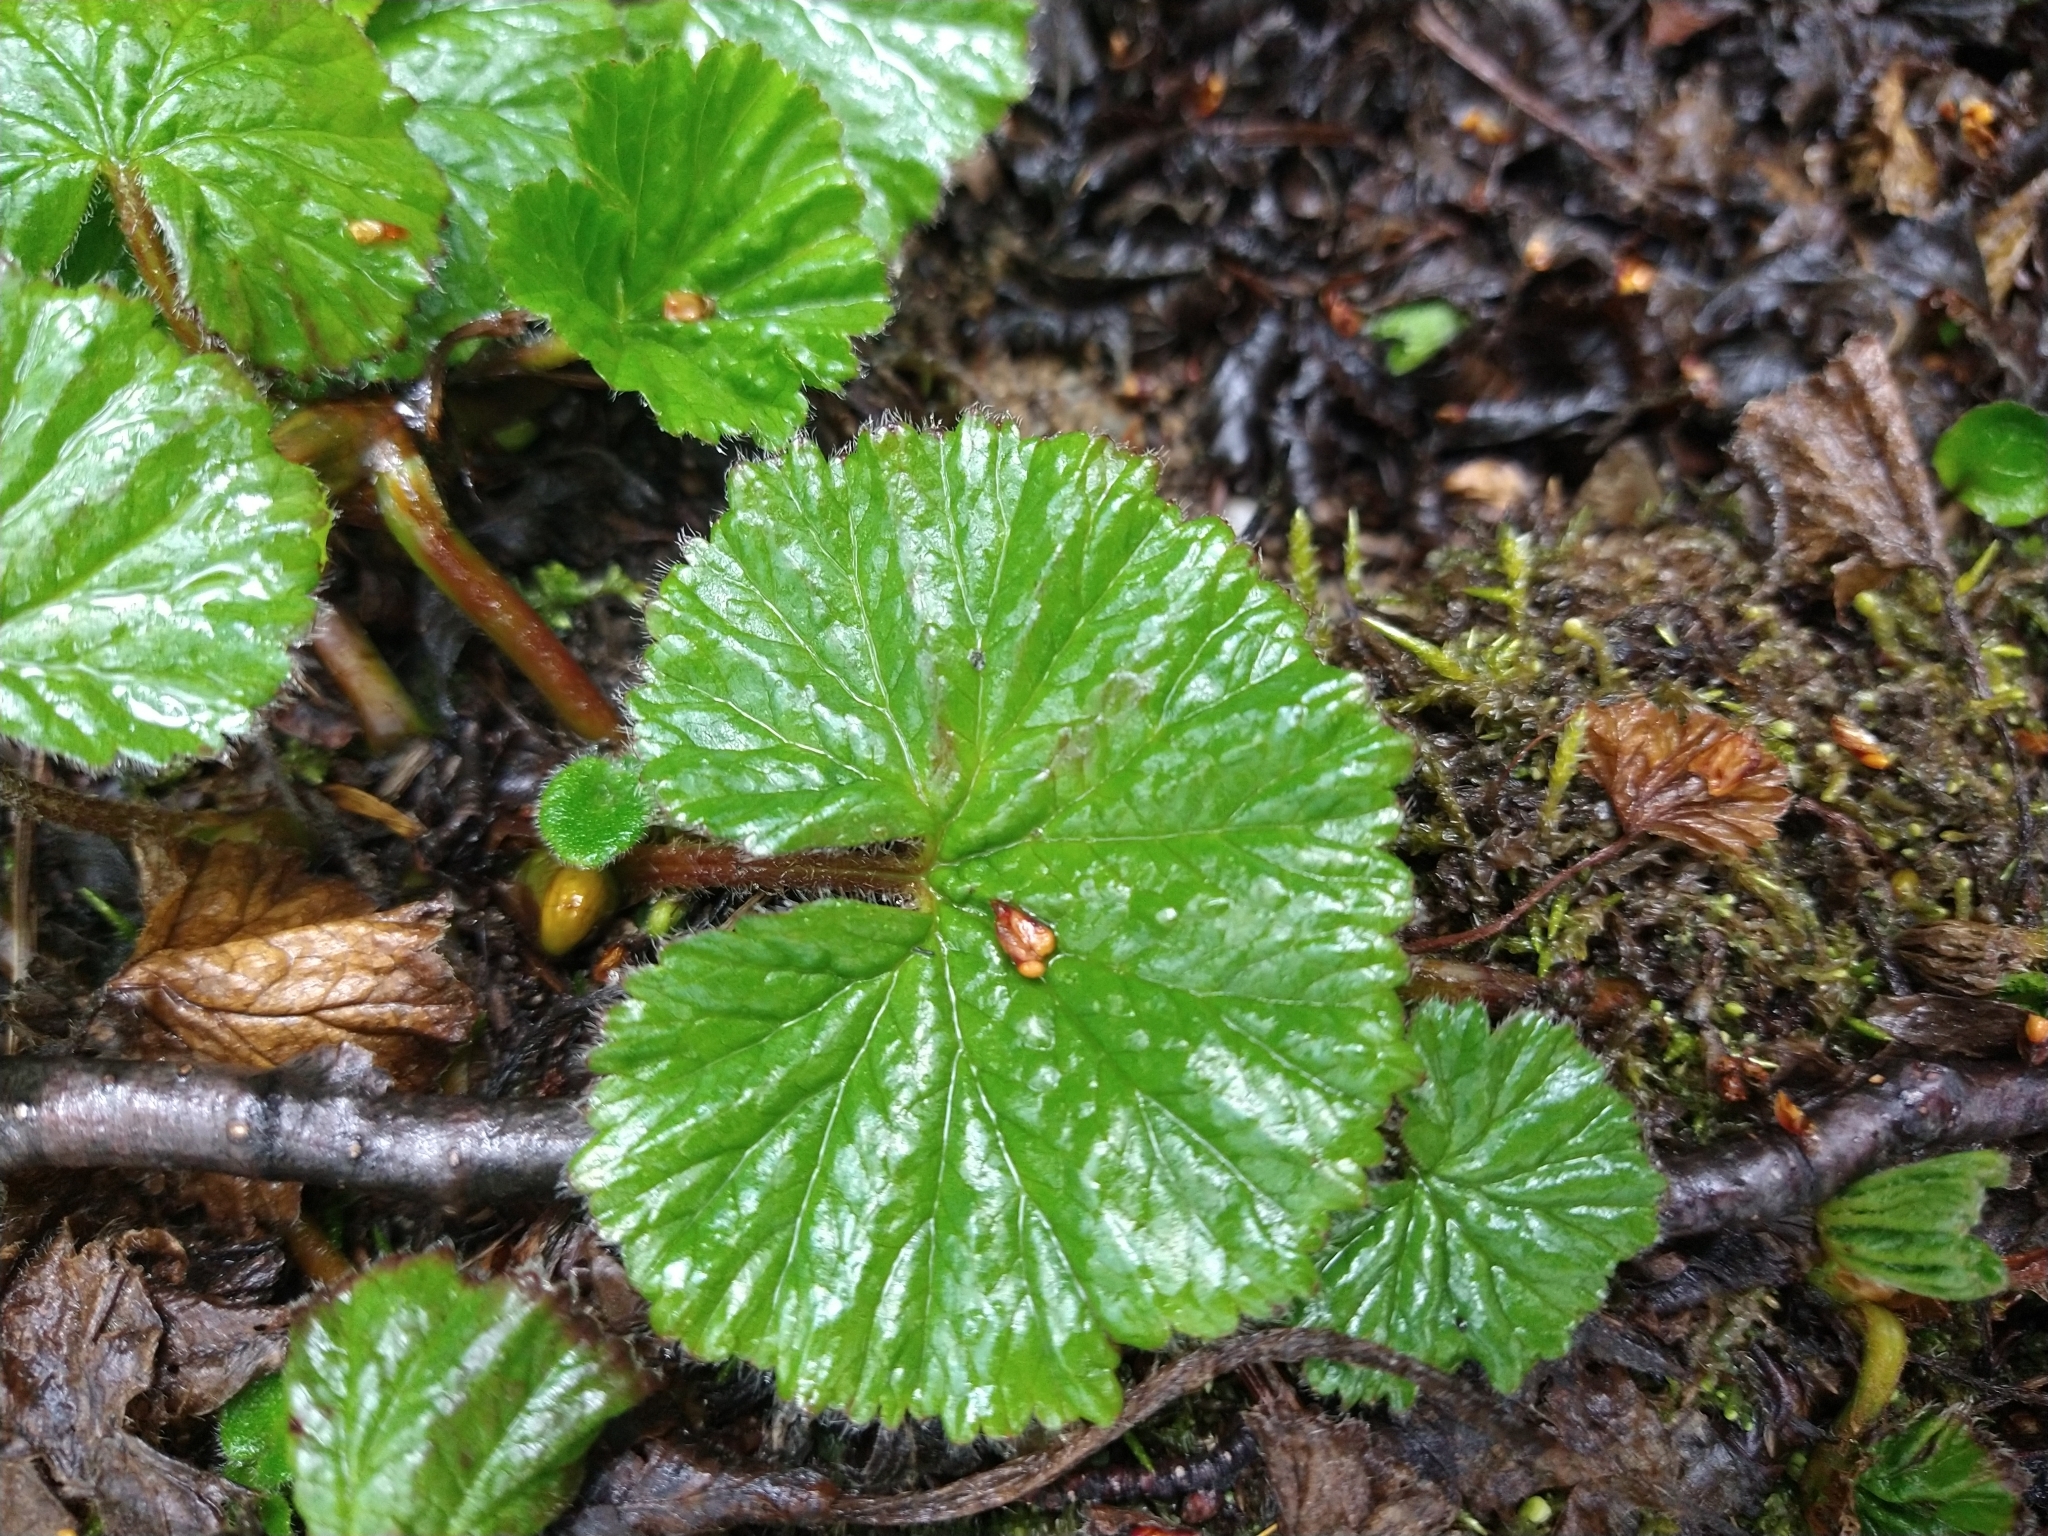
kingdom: Plantae
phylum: Tracheophyta
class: Magnoliopsida
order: Gunnerales
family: Gunneraceae
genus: Gunnera
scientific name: Gunnera magellanica
